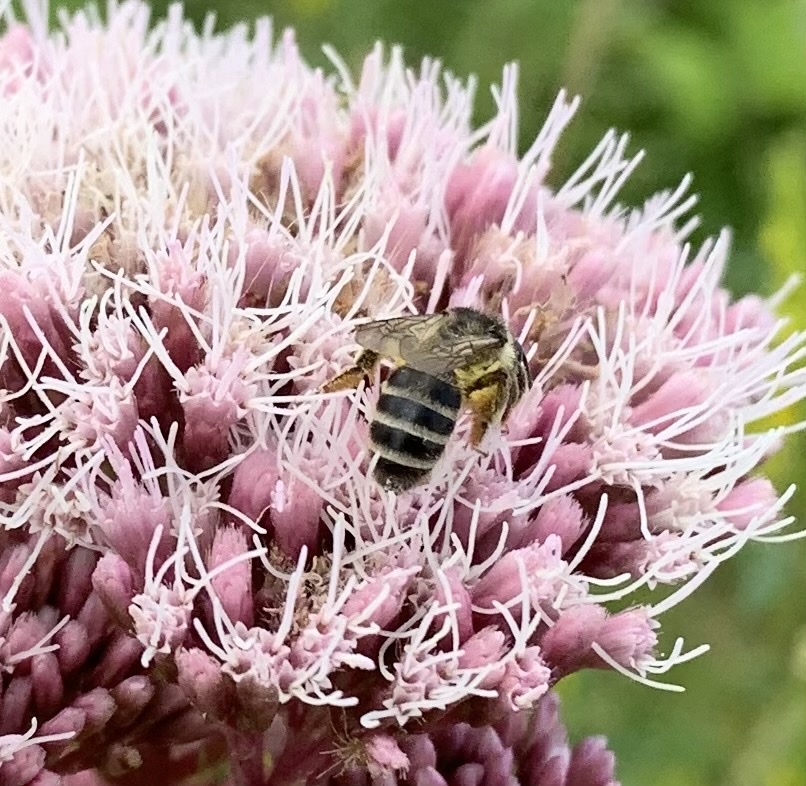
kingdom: Animalia
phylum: Arthropoda
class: Insecta
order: Hymenoptera
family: Andrenidae
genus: Andrena
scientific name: Andrena denticulata
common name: Grey-banded mining bee
